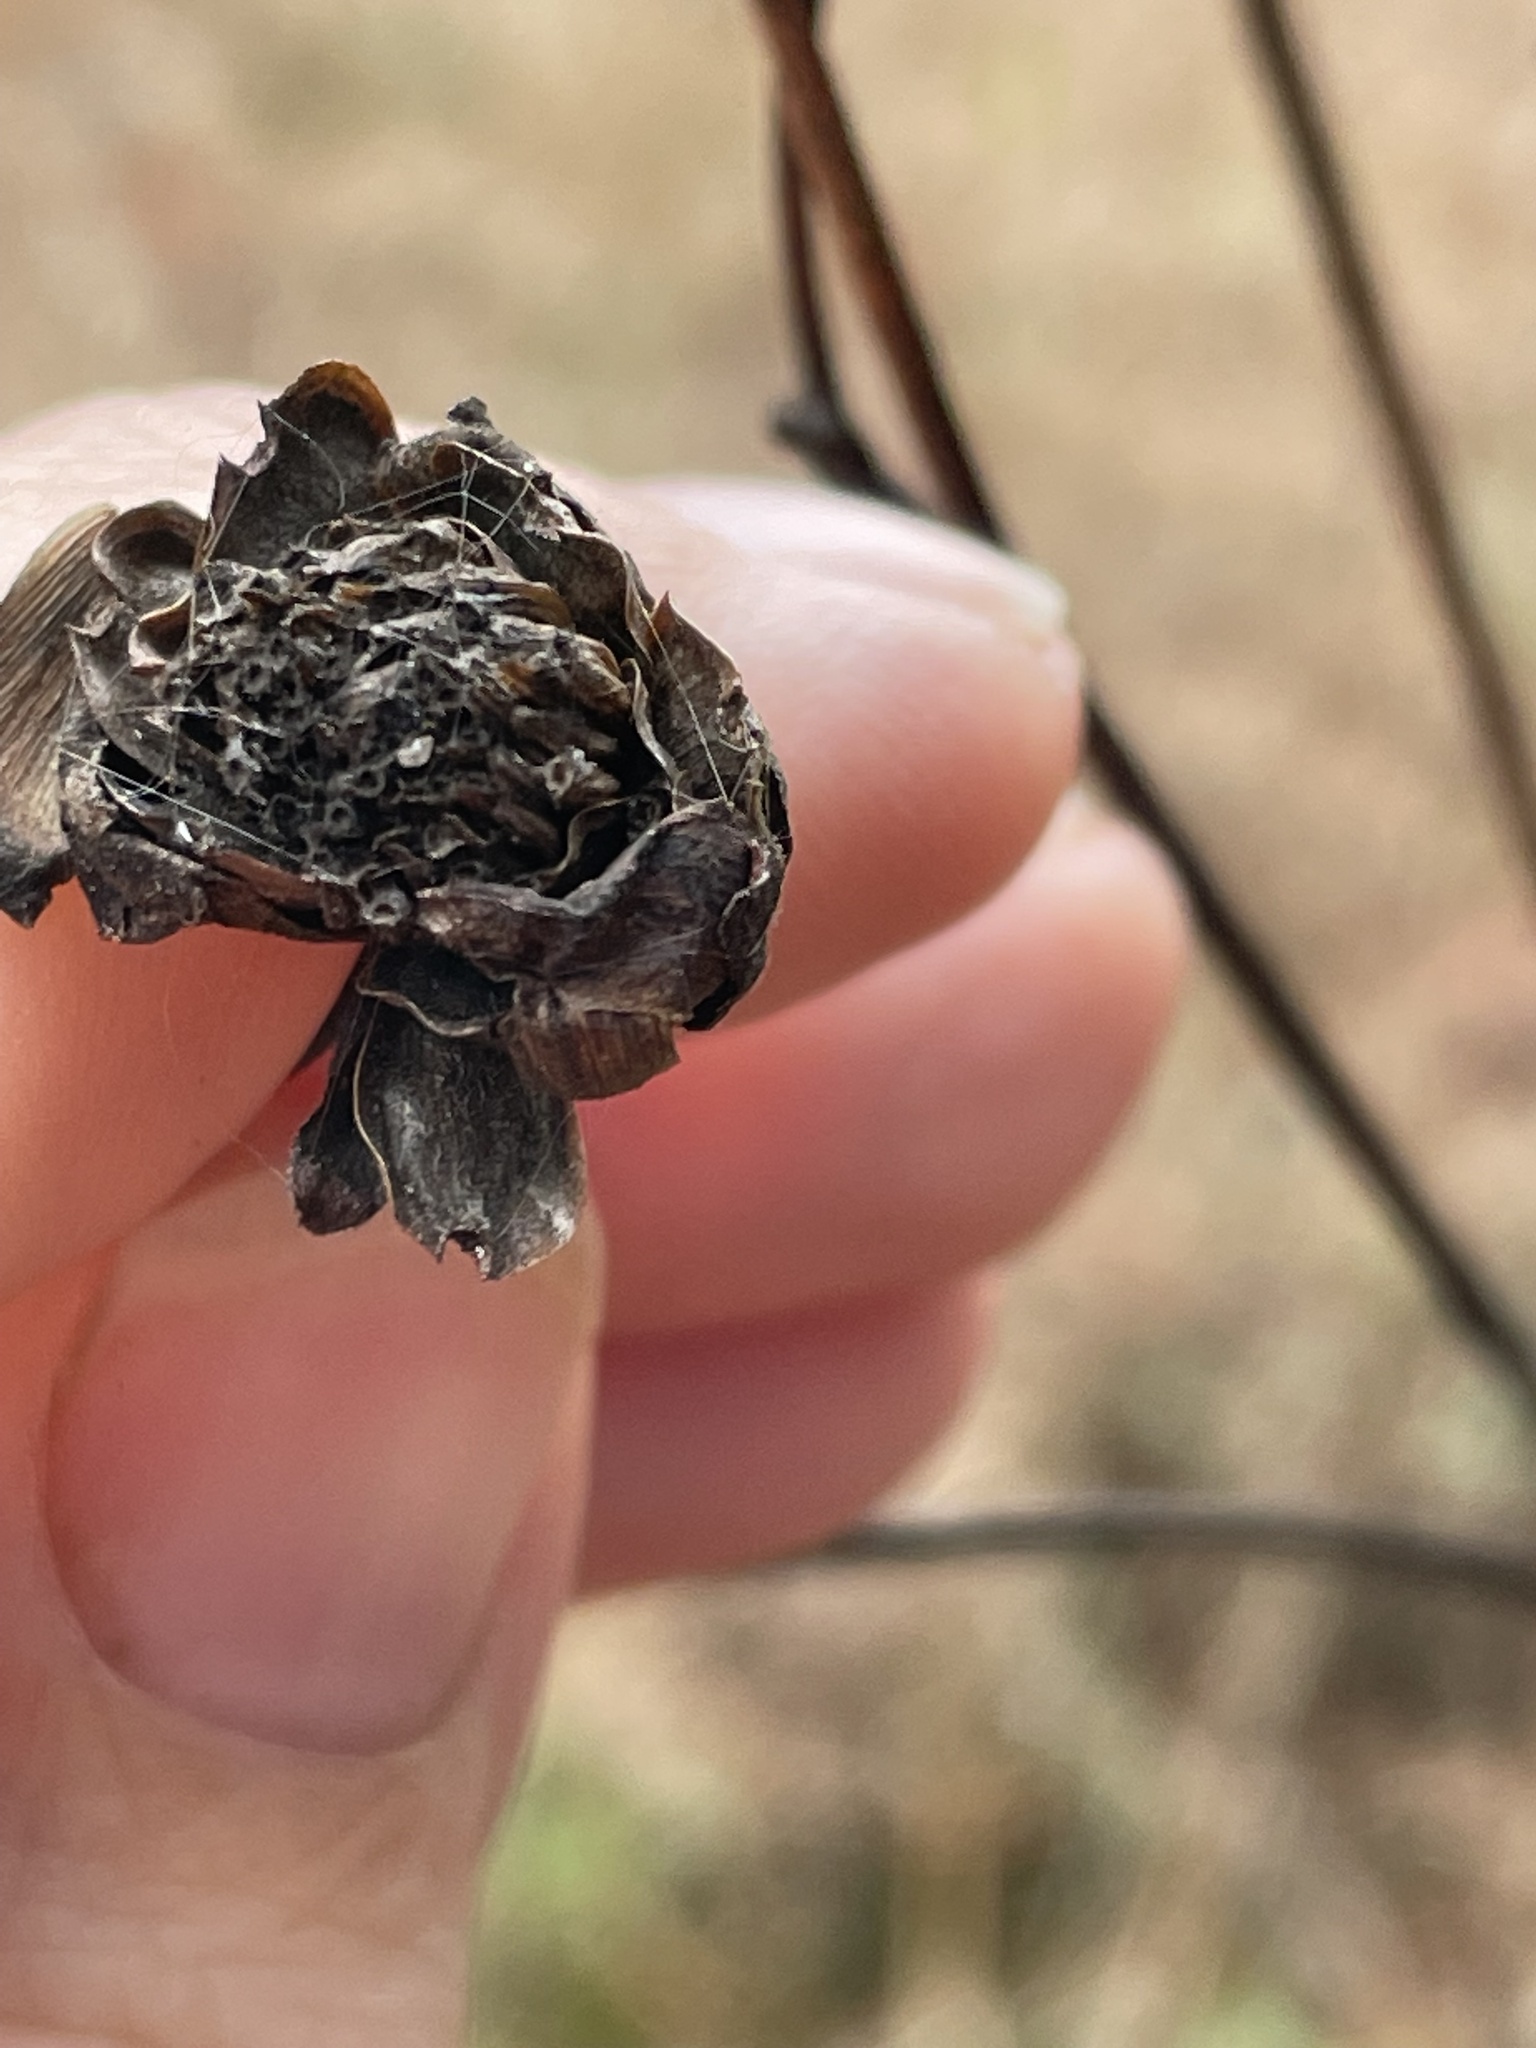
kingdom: Plantae
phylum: Tracheophyta
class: Magnoliopsida
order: Asterales
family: Asteraceae
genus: Silphium
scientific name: Silphium terebinthinaceum
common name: Basal-leaf rosinweed
